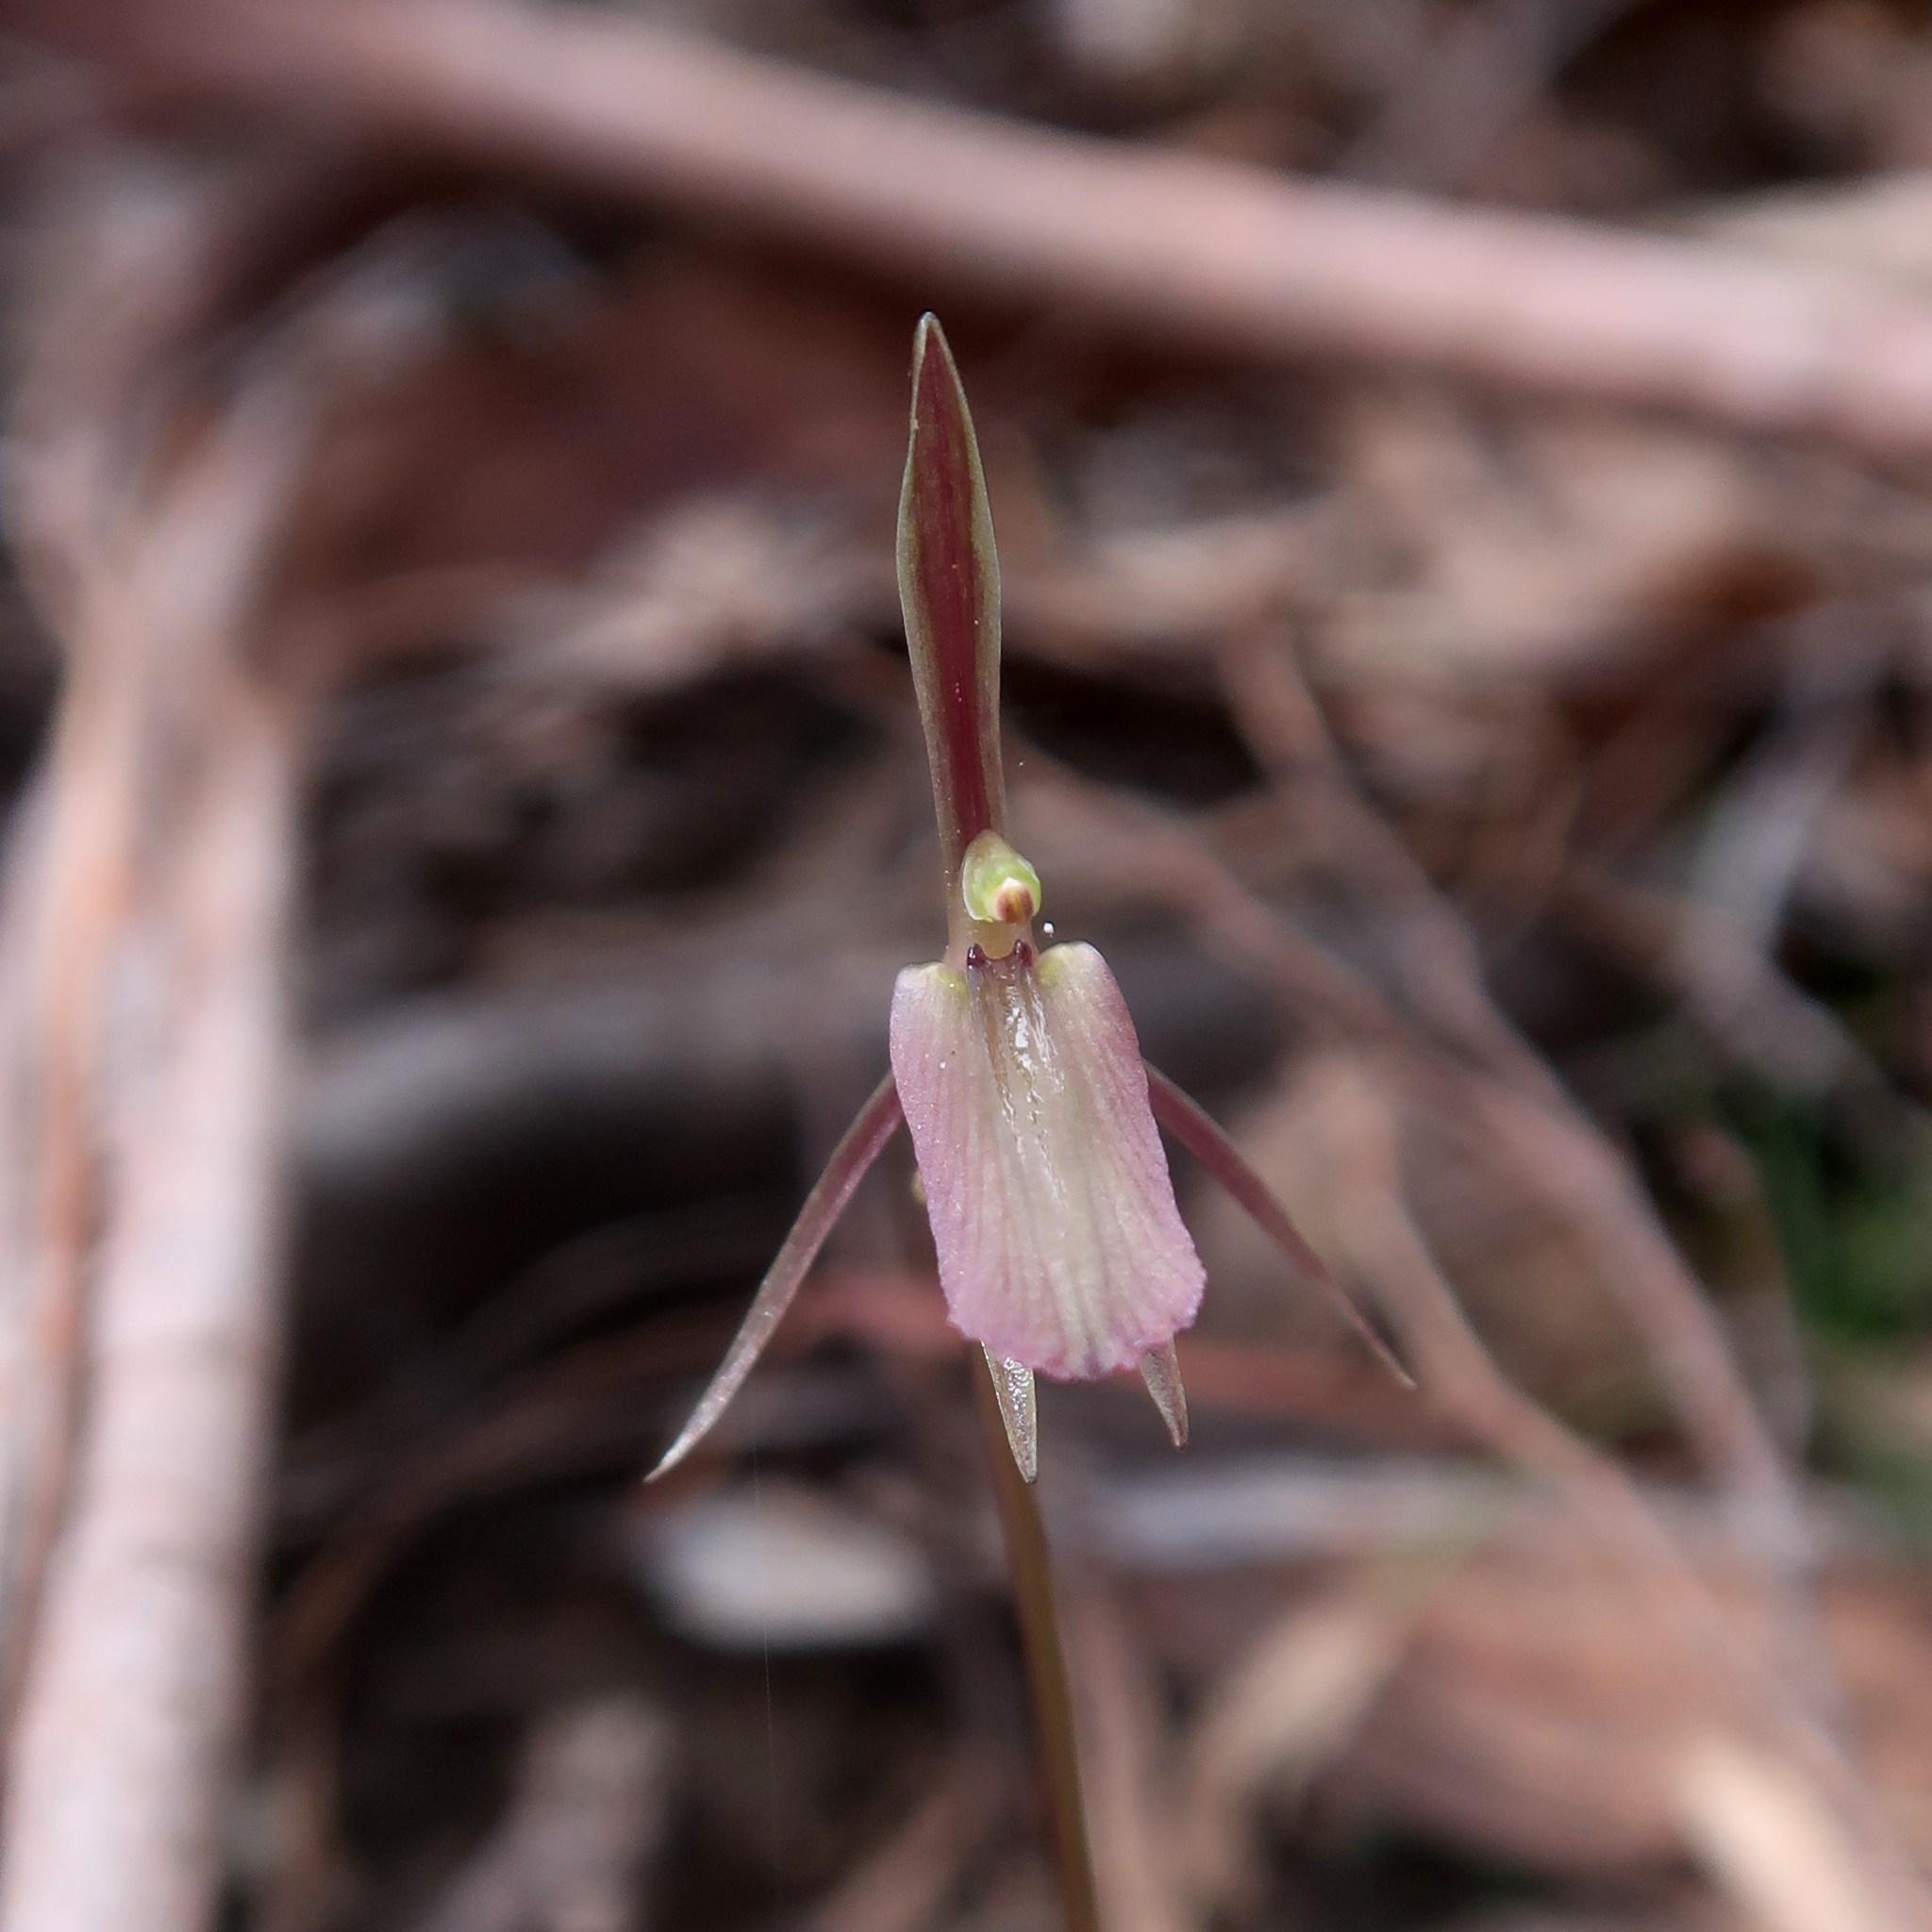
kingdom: Plantae
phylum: Tracheophyta
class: Liliopsida
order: Asparagales
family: Orchidaceae
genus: Cyrtostylis
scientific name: Cyrtostylis reniformis
